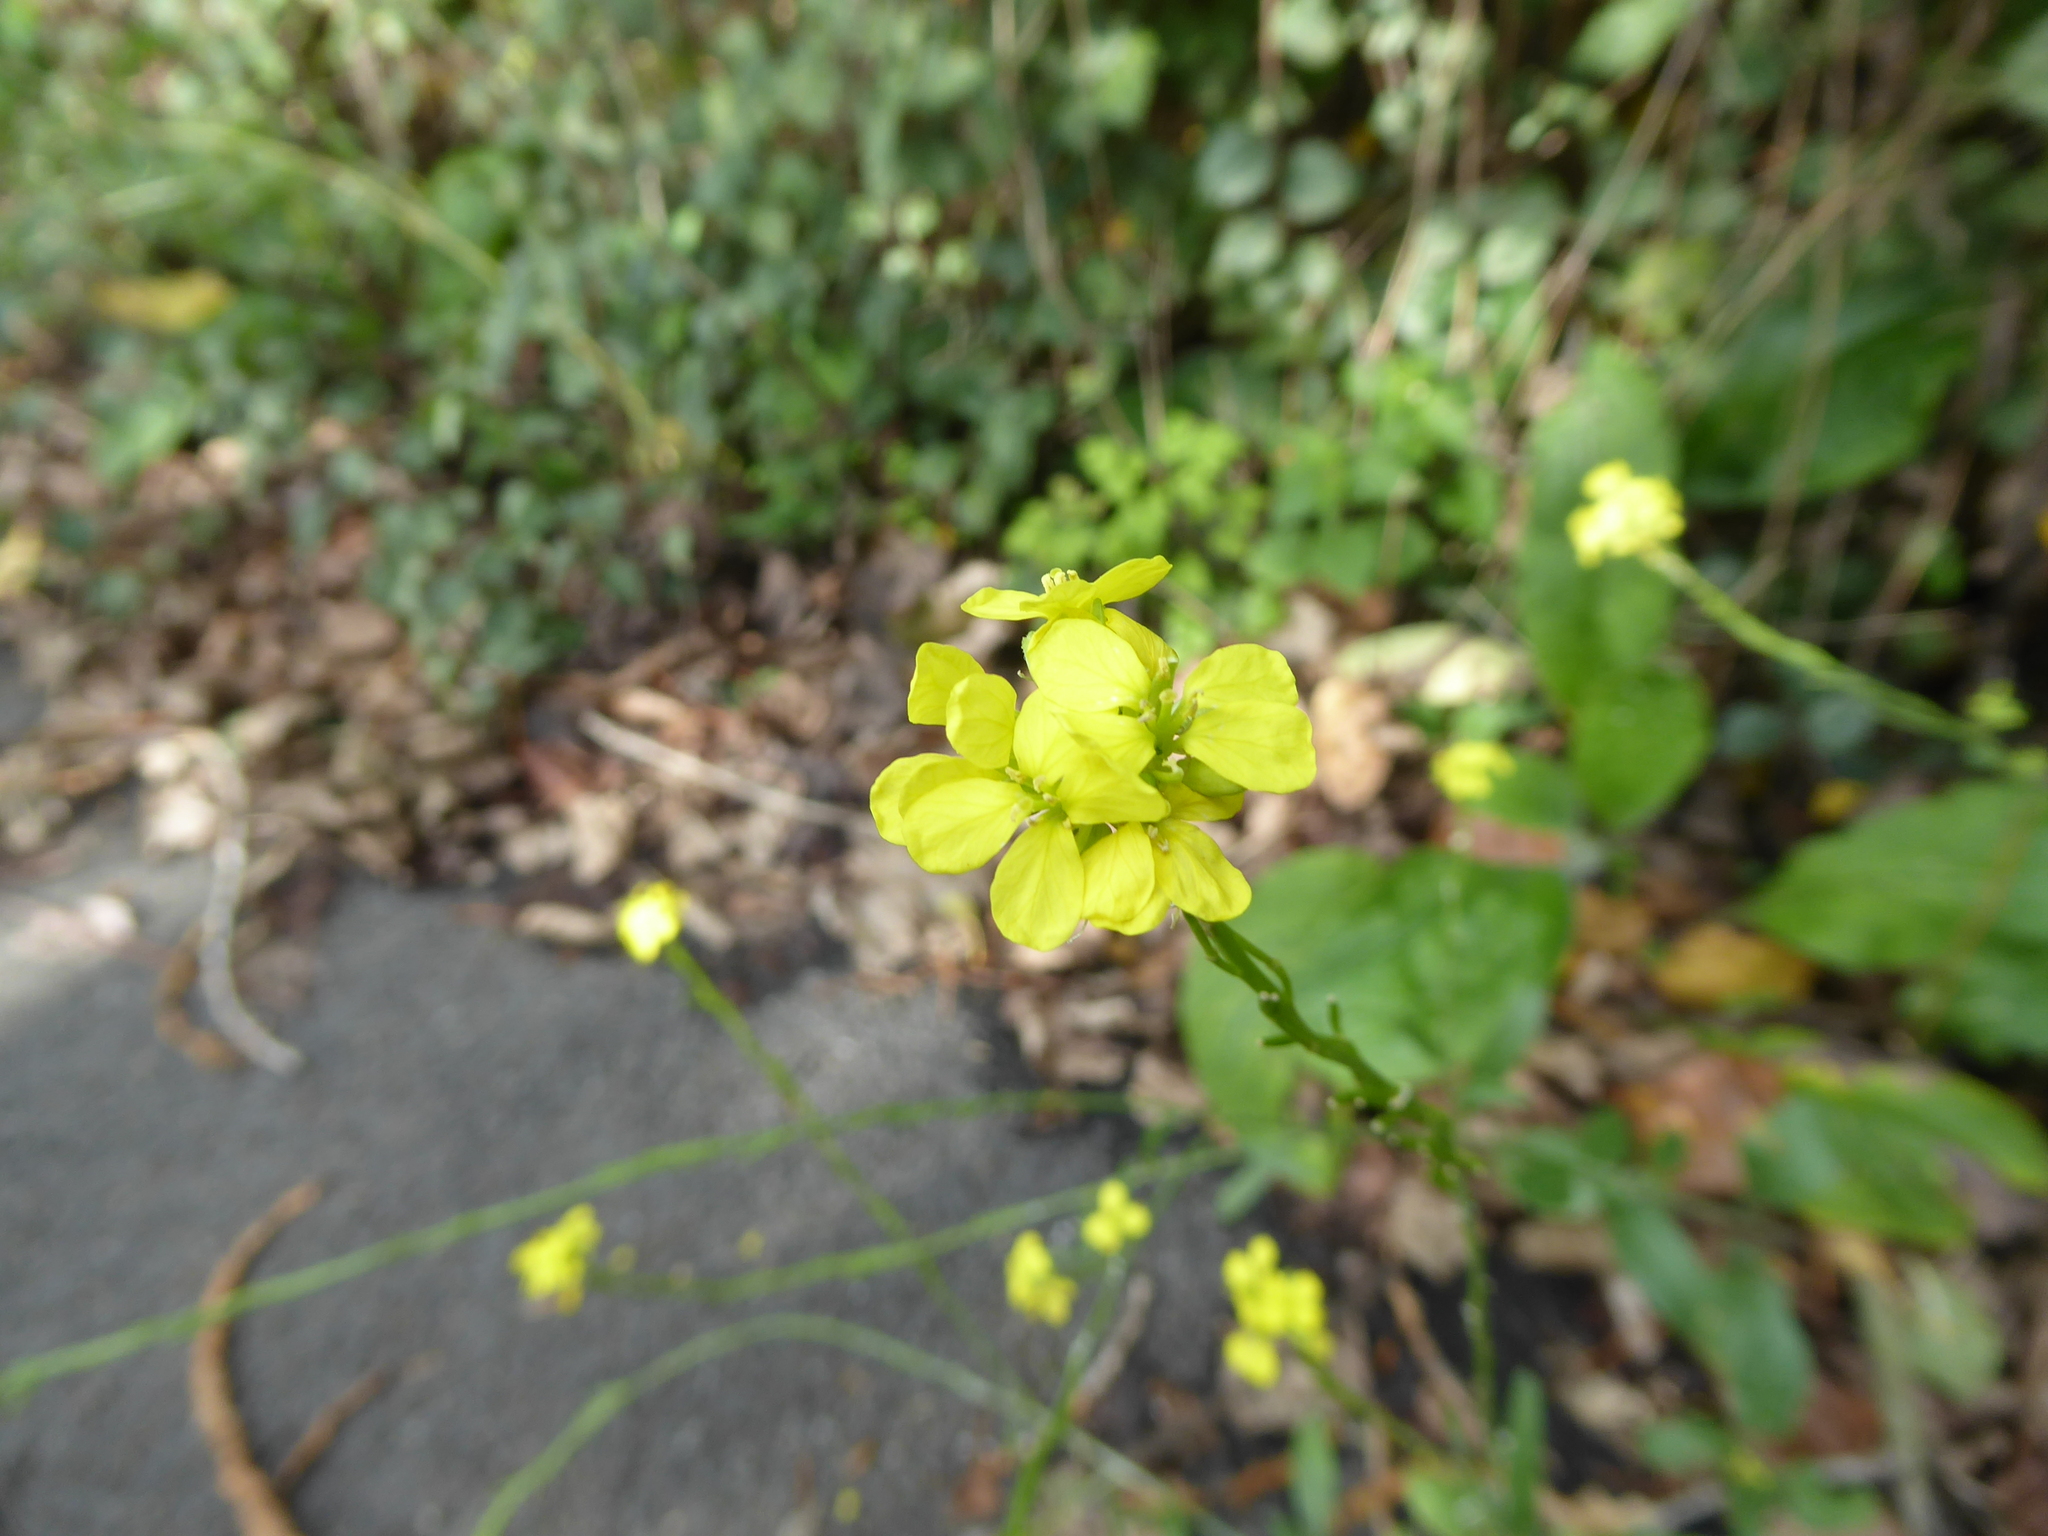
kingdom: Plantae
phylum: Tracheophyta
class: Magnoliopsida
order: Brassicales
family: Brassicaceae
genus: Hirschfeldia
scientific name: Hirschfeldia incana
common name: Hoary mustard
